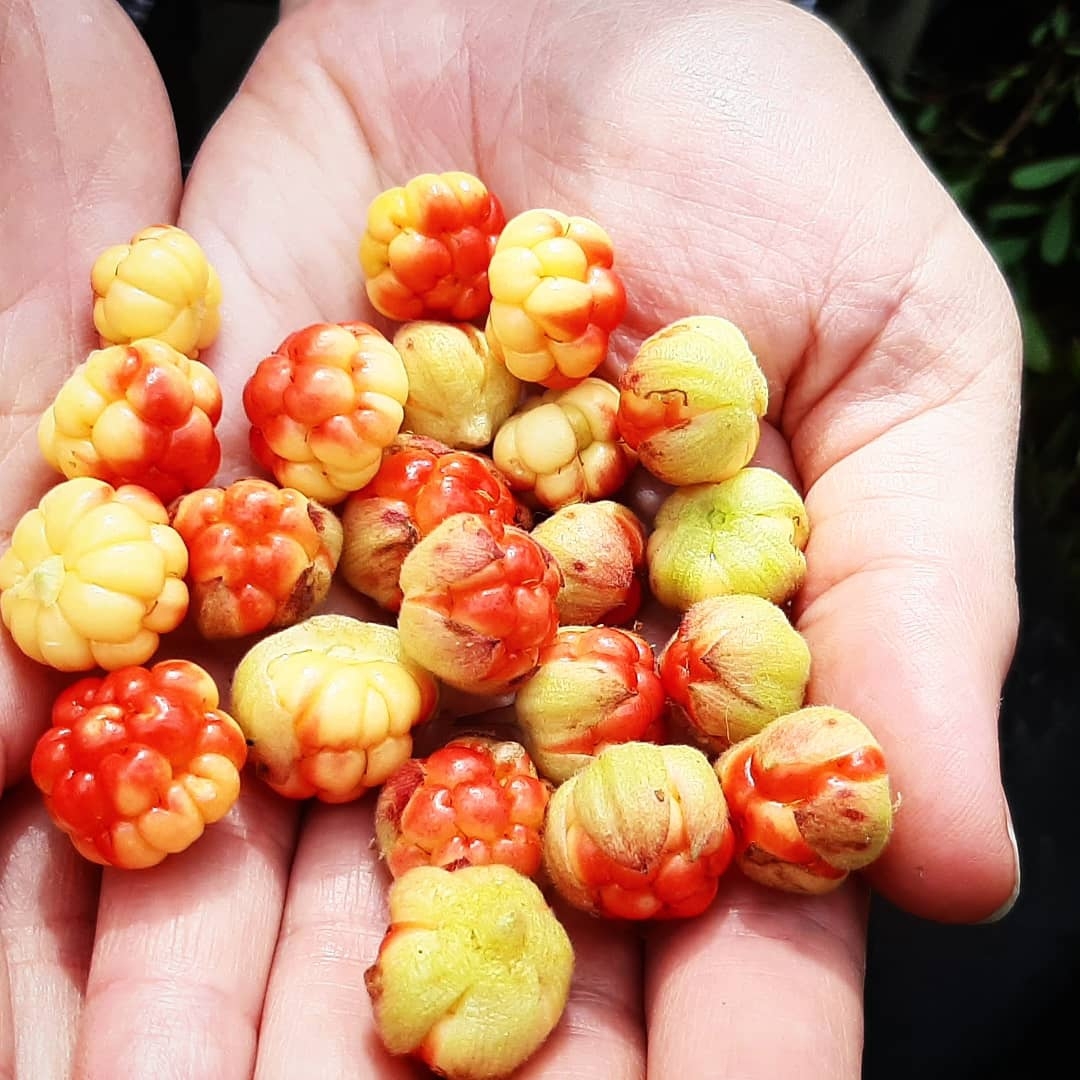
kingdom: Plantae
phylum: Tracheophyta
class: Magnoliopsida
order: Rosales
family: Rosaceae
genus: Rubus
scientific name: Rubus chamaemorus
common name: Cloudberry
